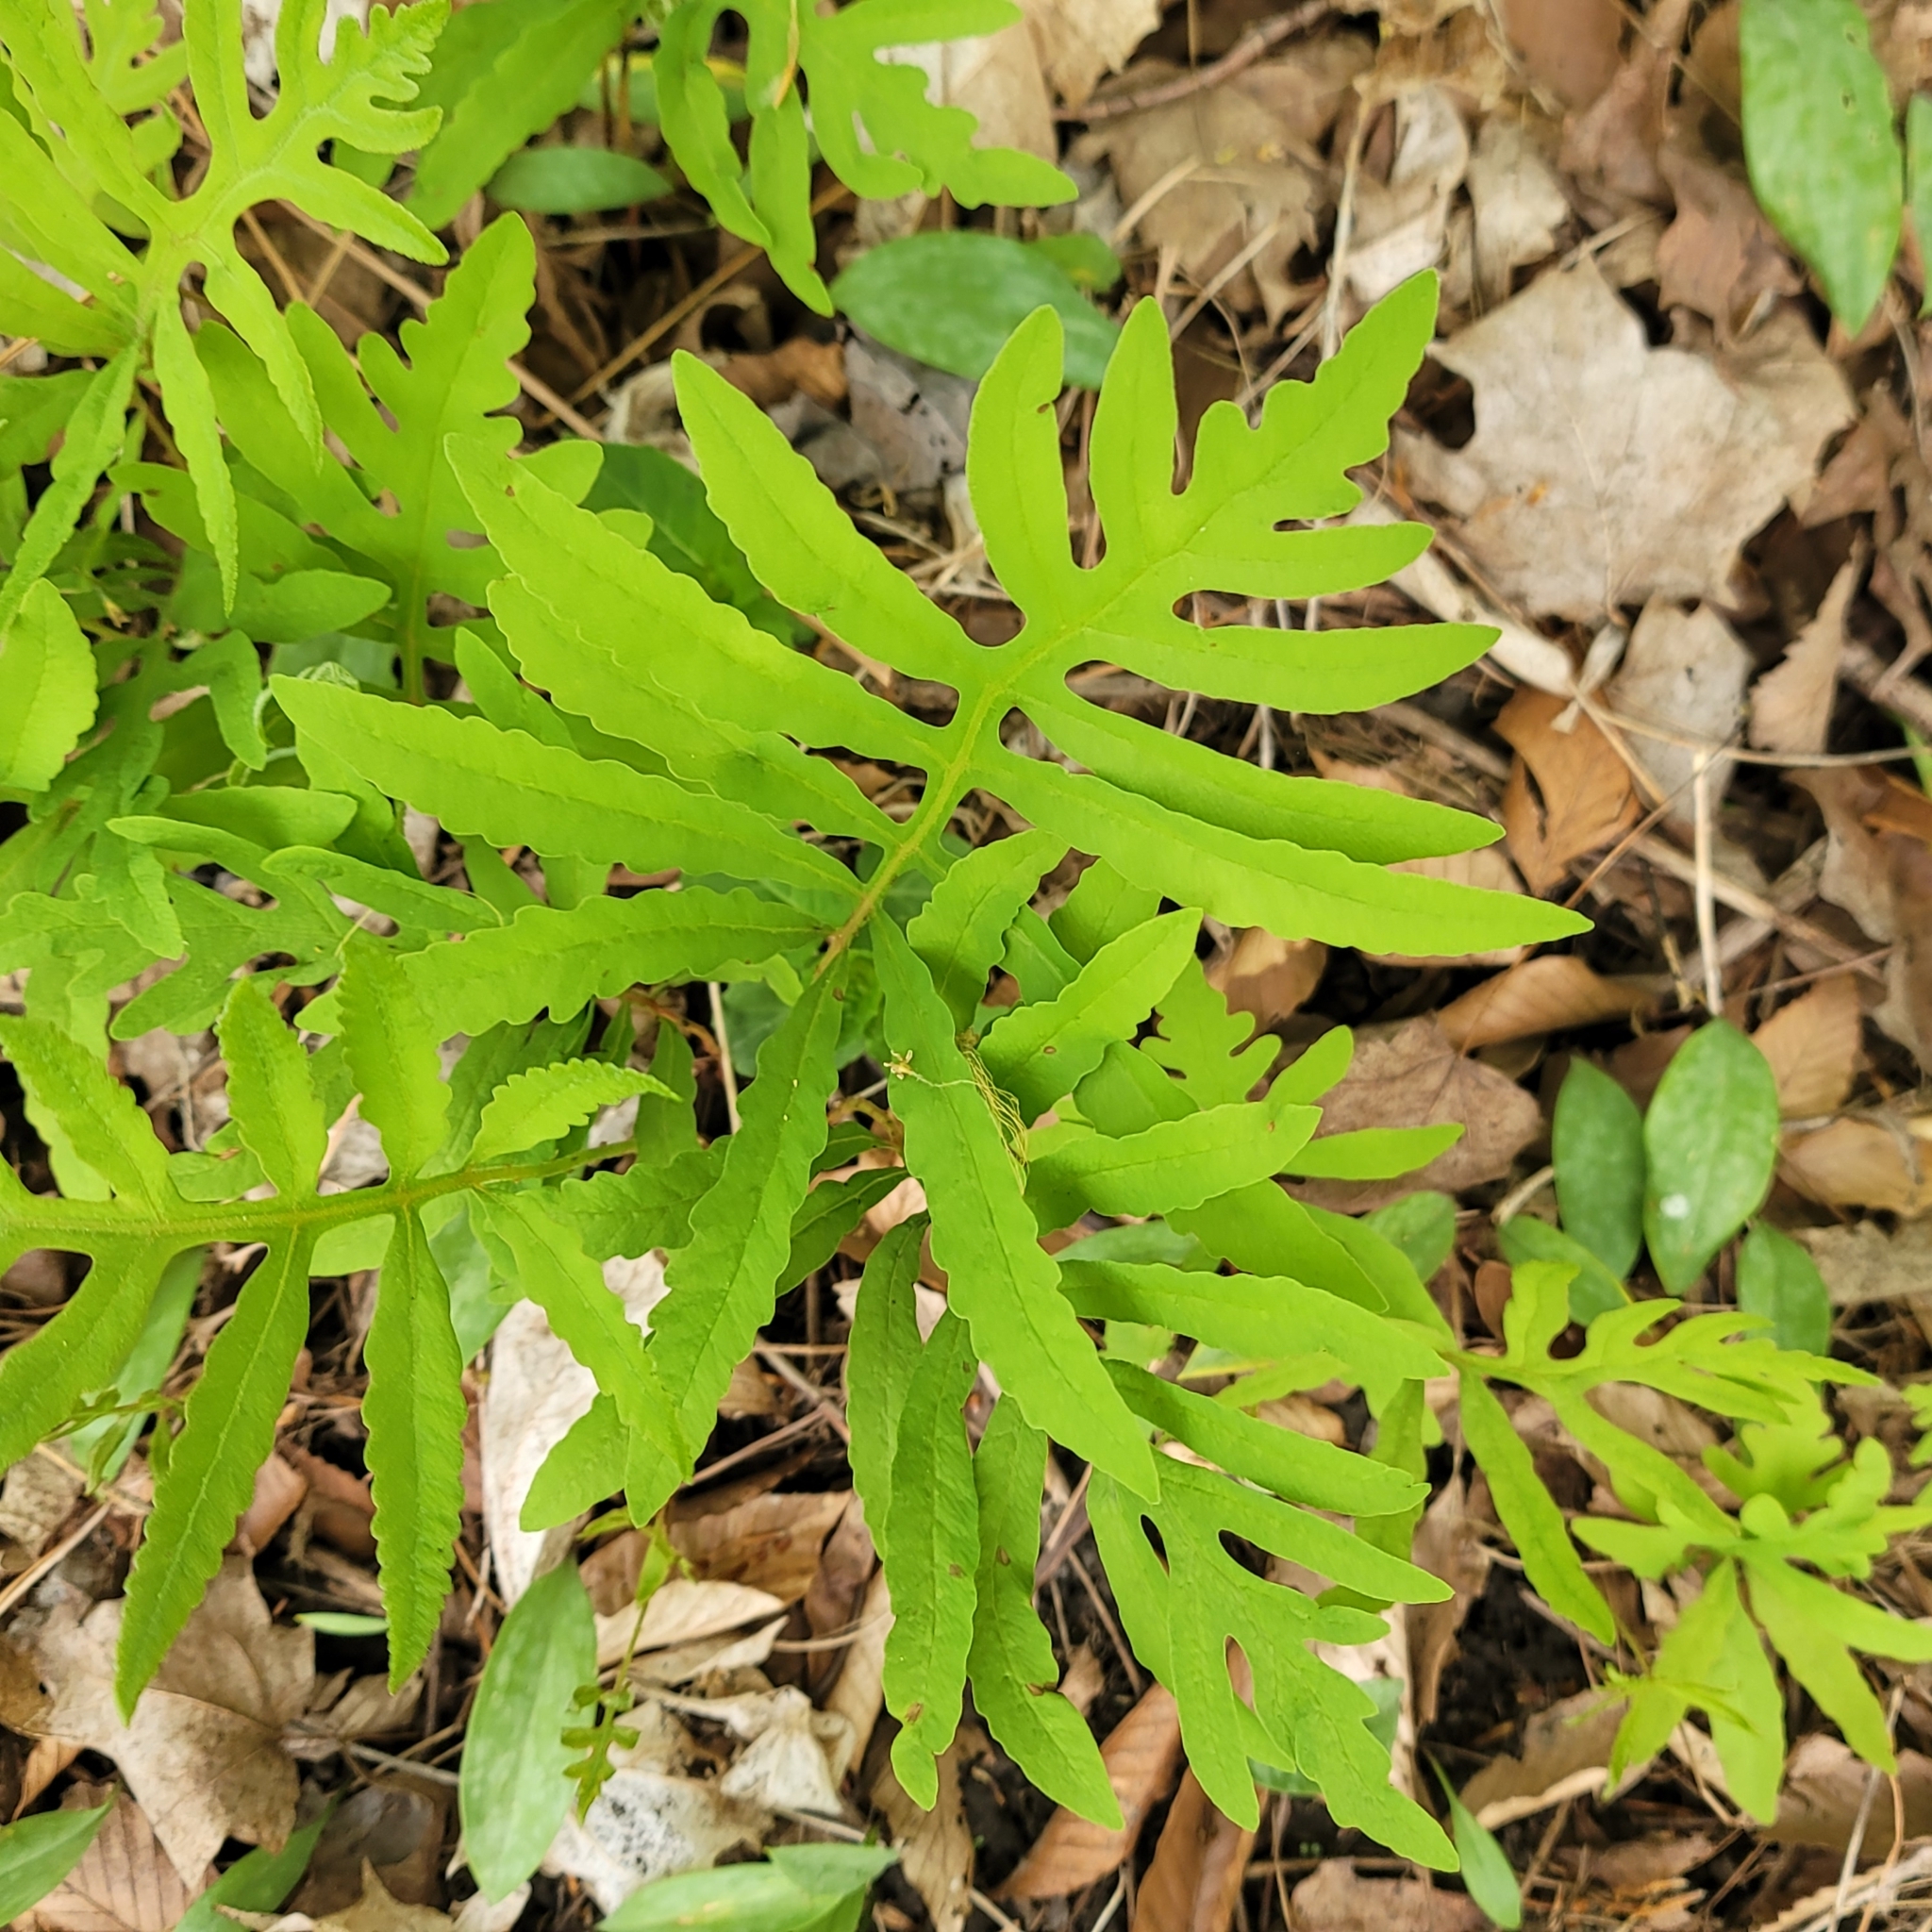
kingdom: Plantae
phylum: Tracheophyta
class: Polypodiopsida
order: Polypodiales
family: Onocleaceae
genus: Onoclea
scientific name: Onoclea sensibilis
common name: Sensitive fern
